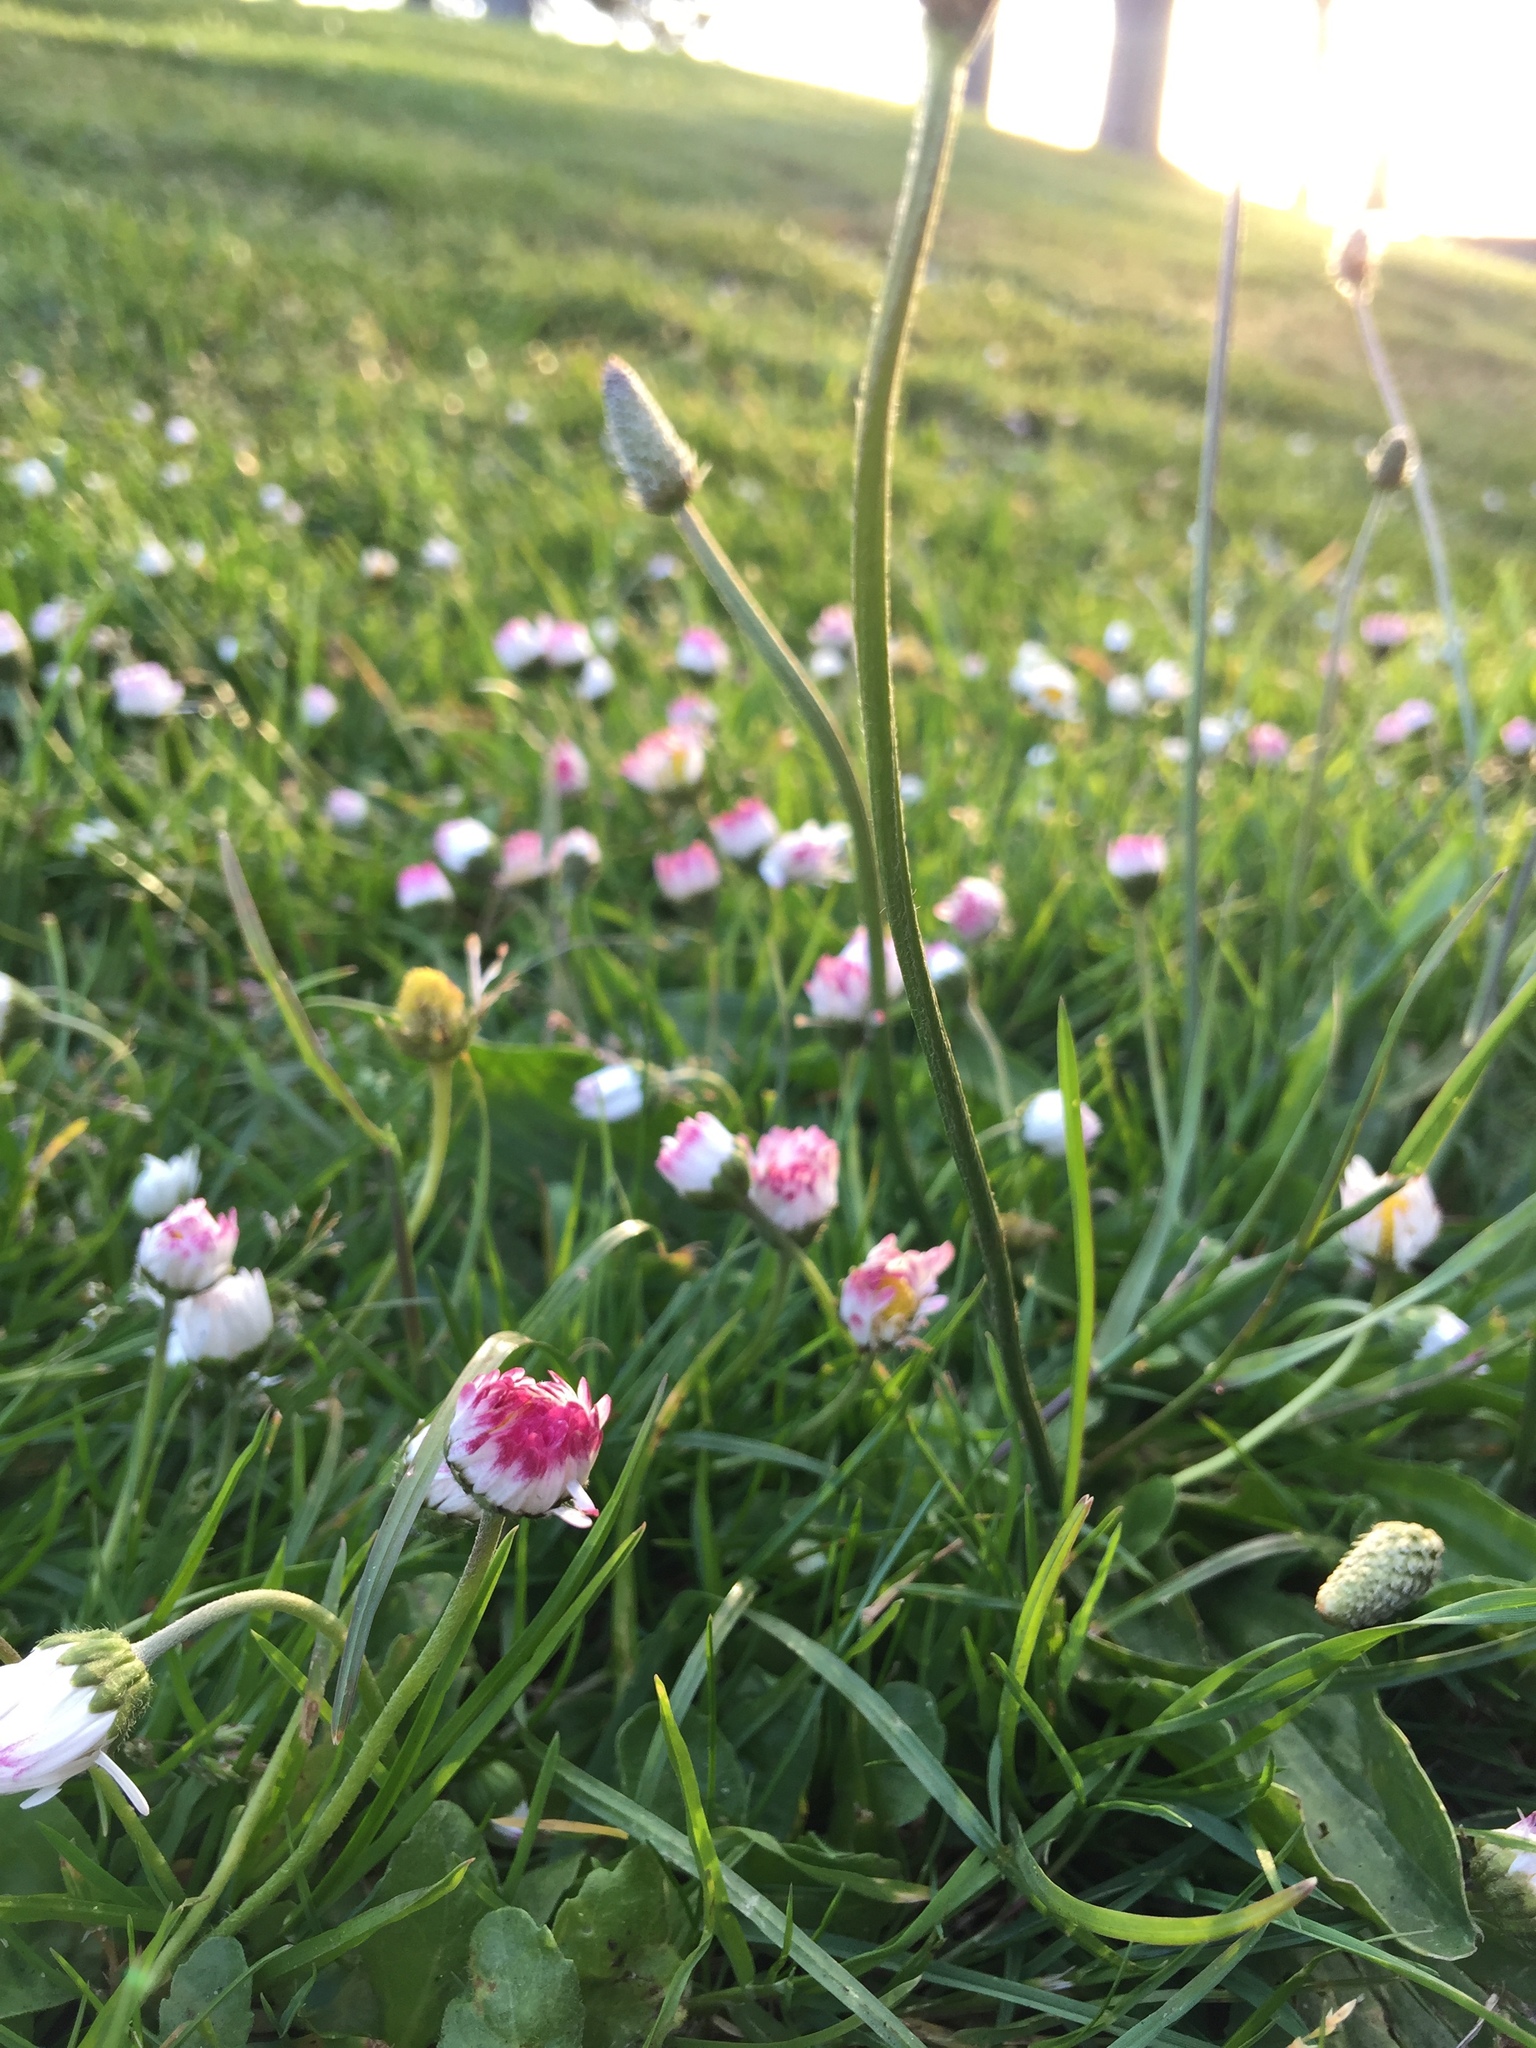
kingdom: Plantae
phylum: Tracheophyta
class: Magnoliopsida
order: Asterales
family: Asteraceae
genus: Bellis
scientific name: Bellis perennis
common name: Lawndaisy
